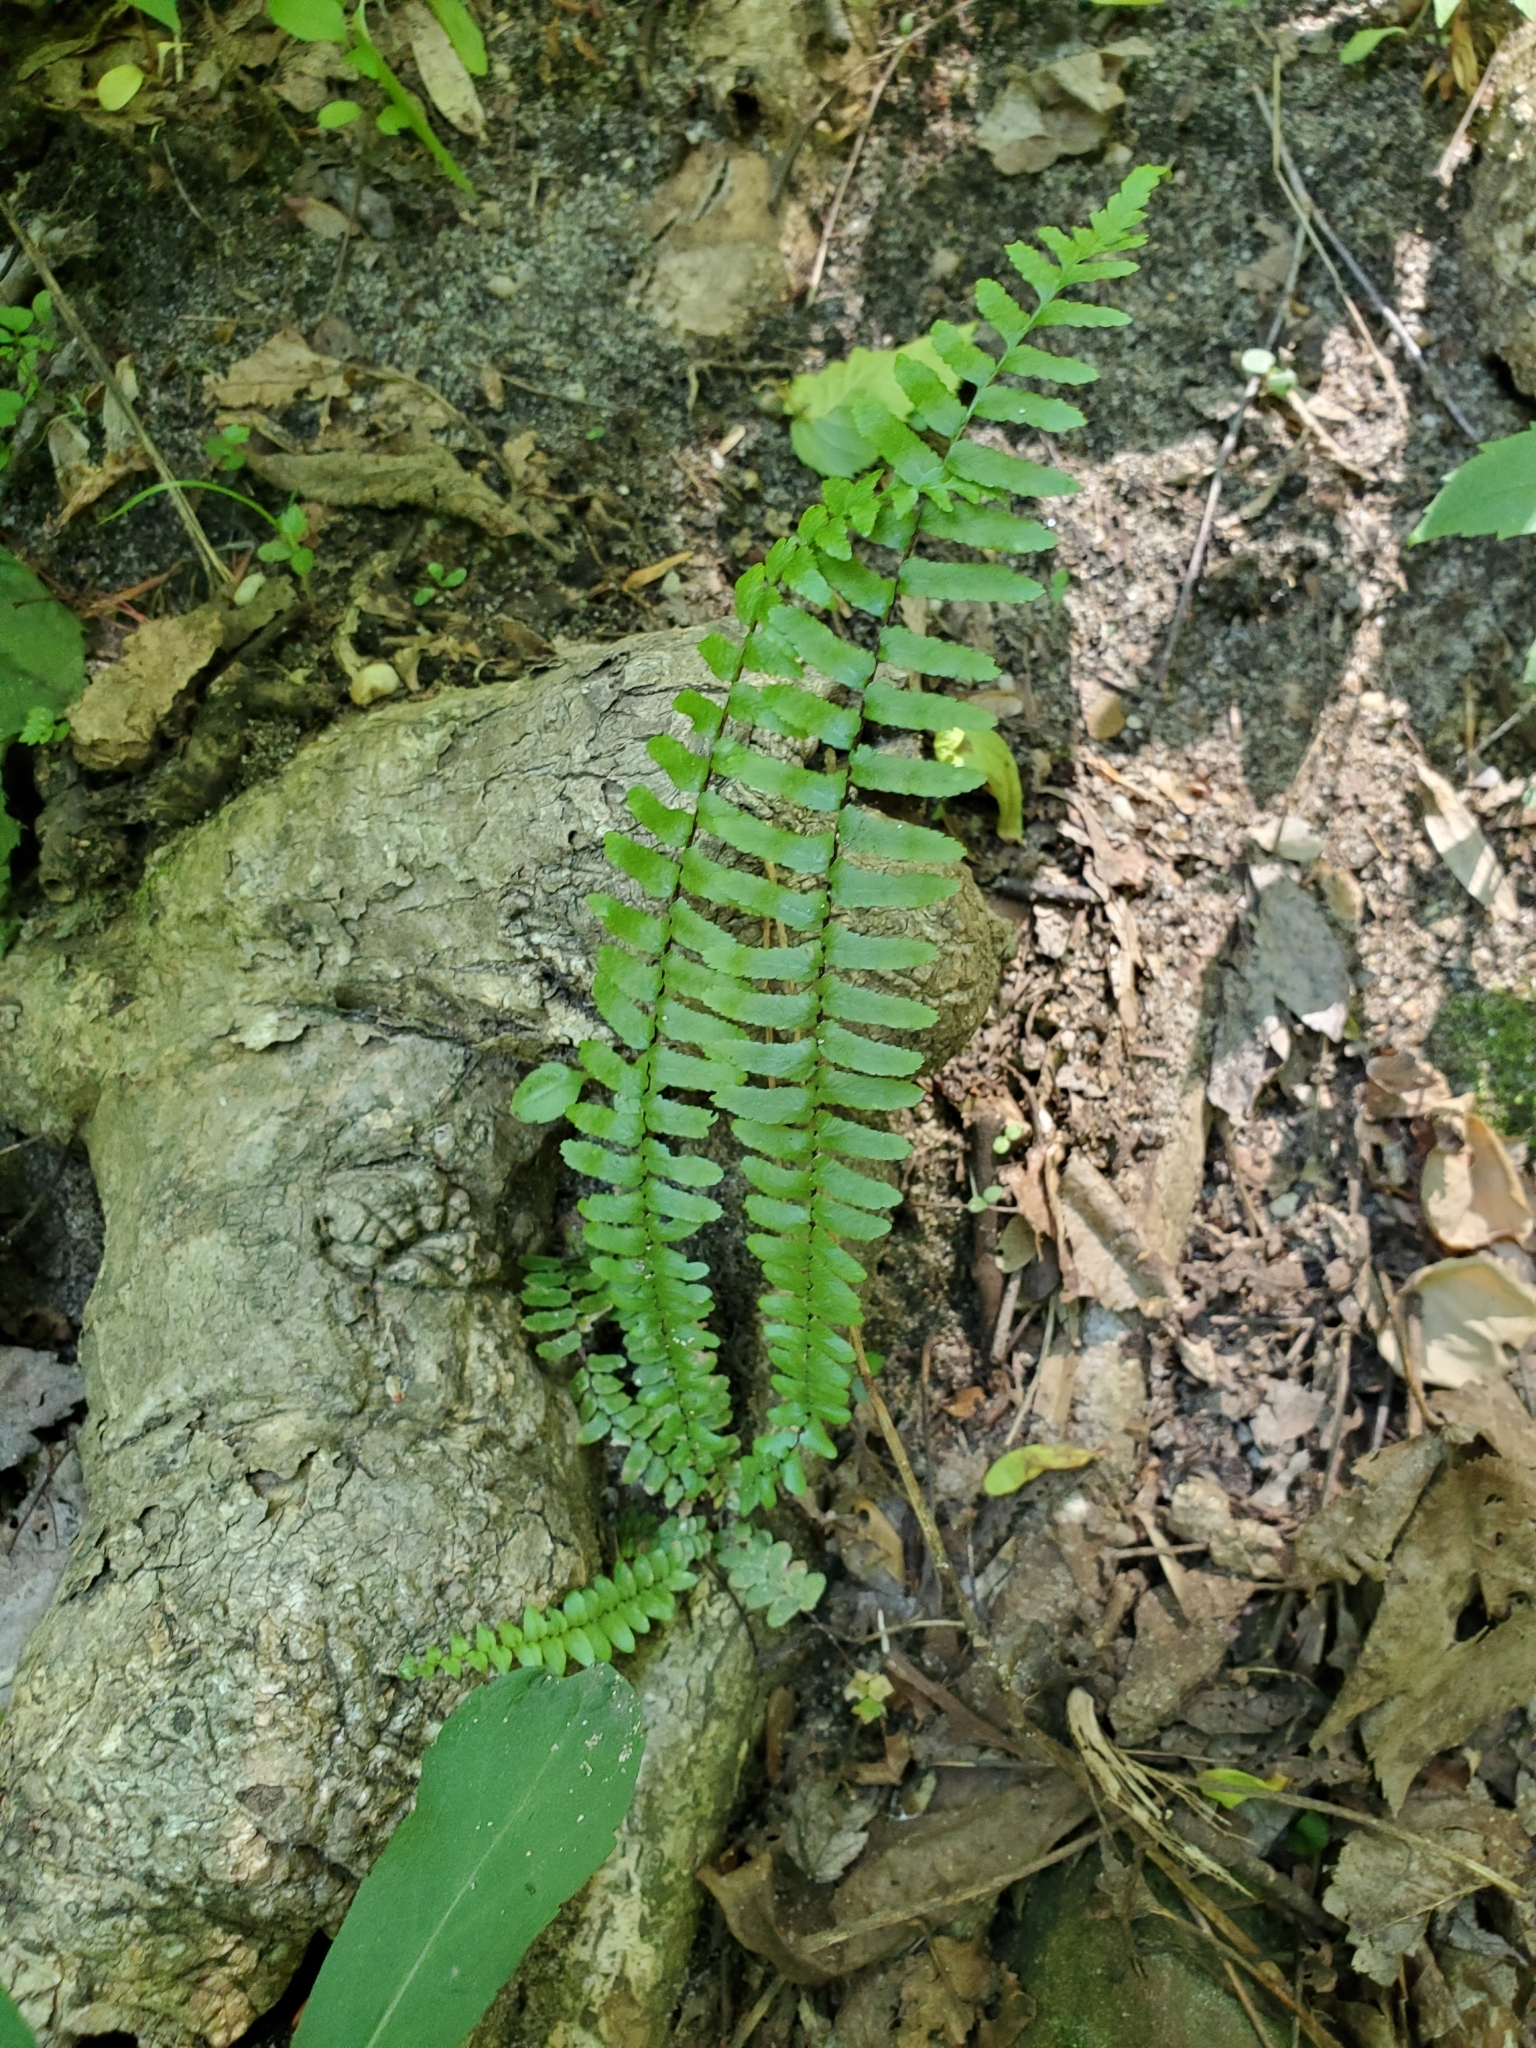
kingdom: Plantae
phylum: Tracheophyta
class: Polypodiopsida
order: Polypodiales
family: Aspleniaceae
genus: Asplenium
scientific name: Asplenium platyneuron
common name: Ebony spleenwort
